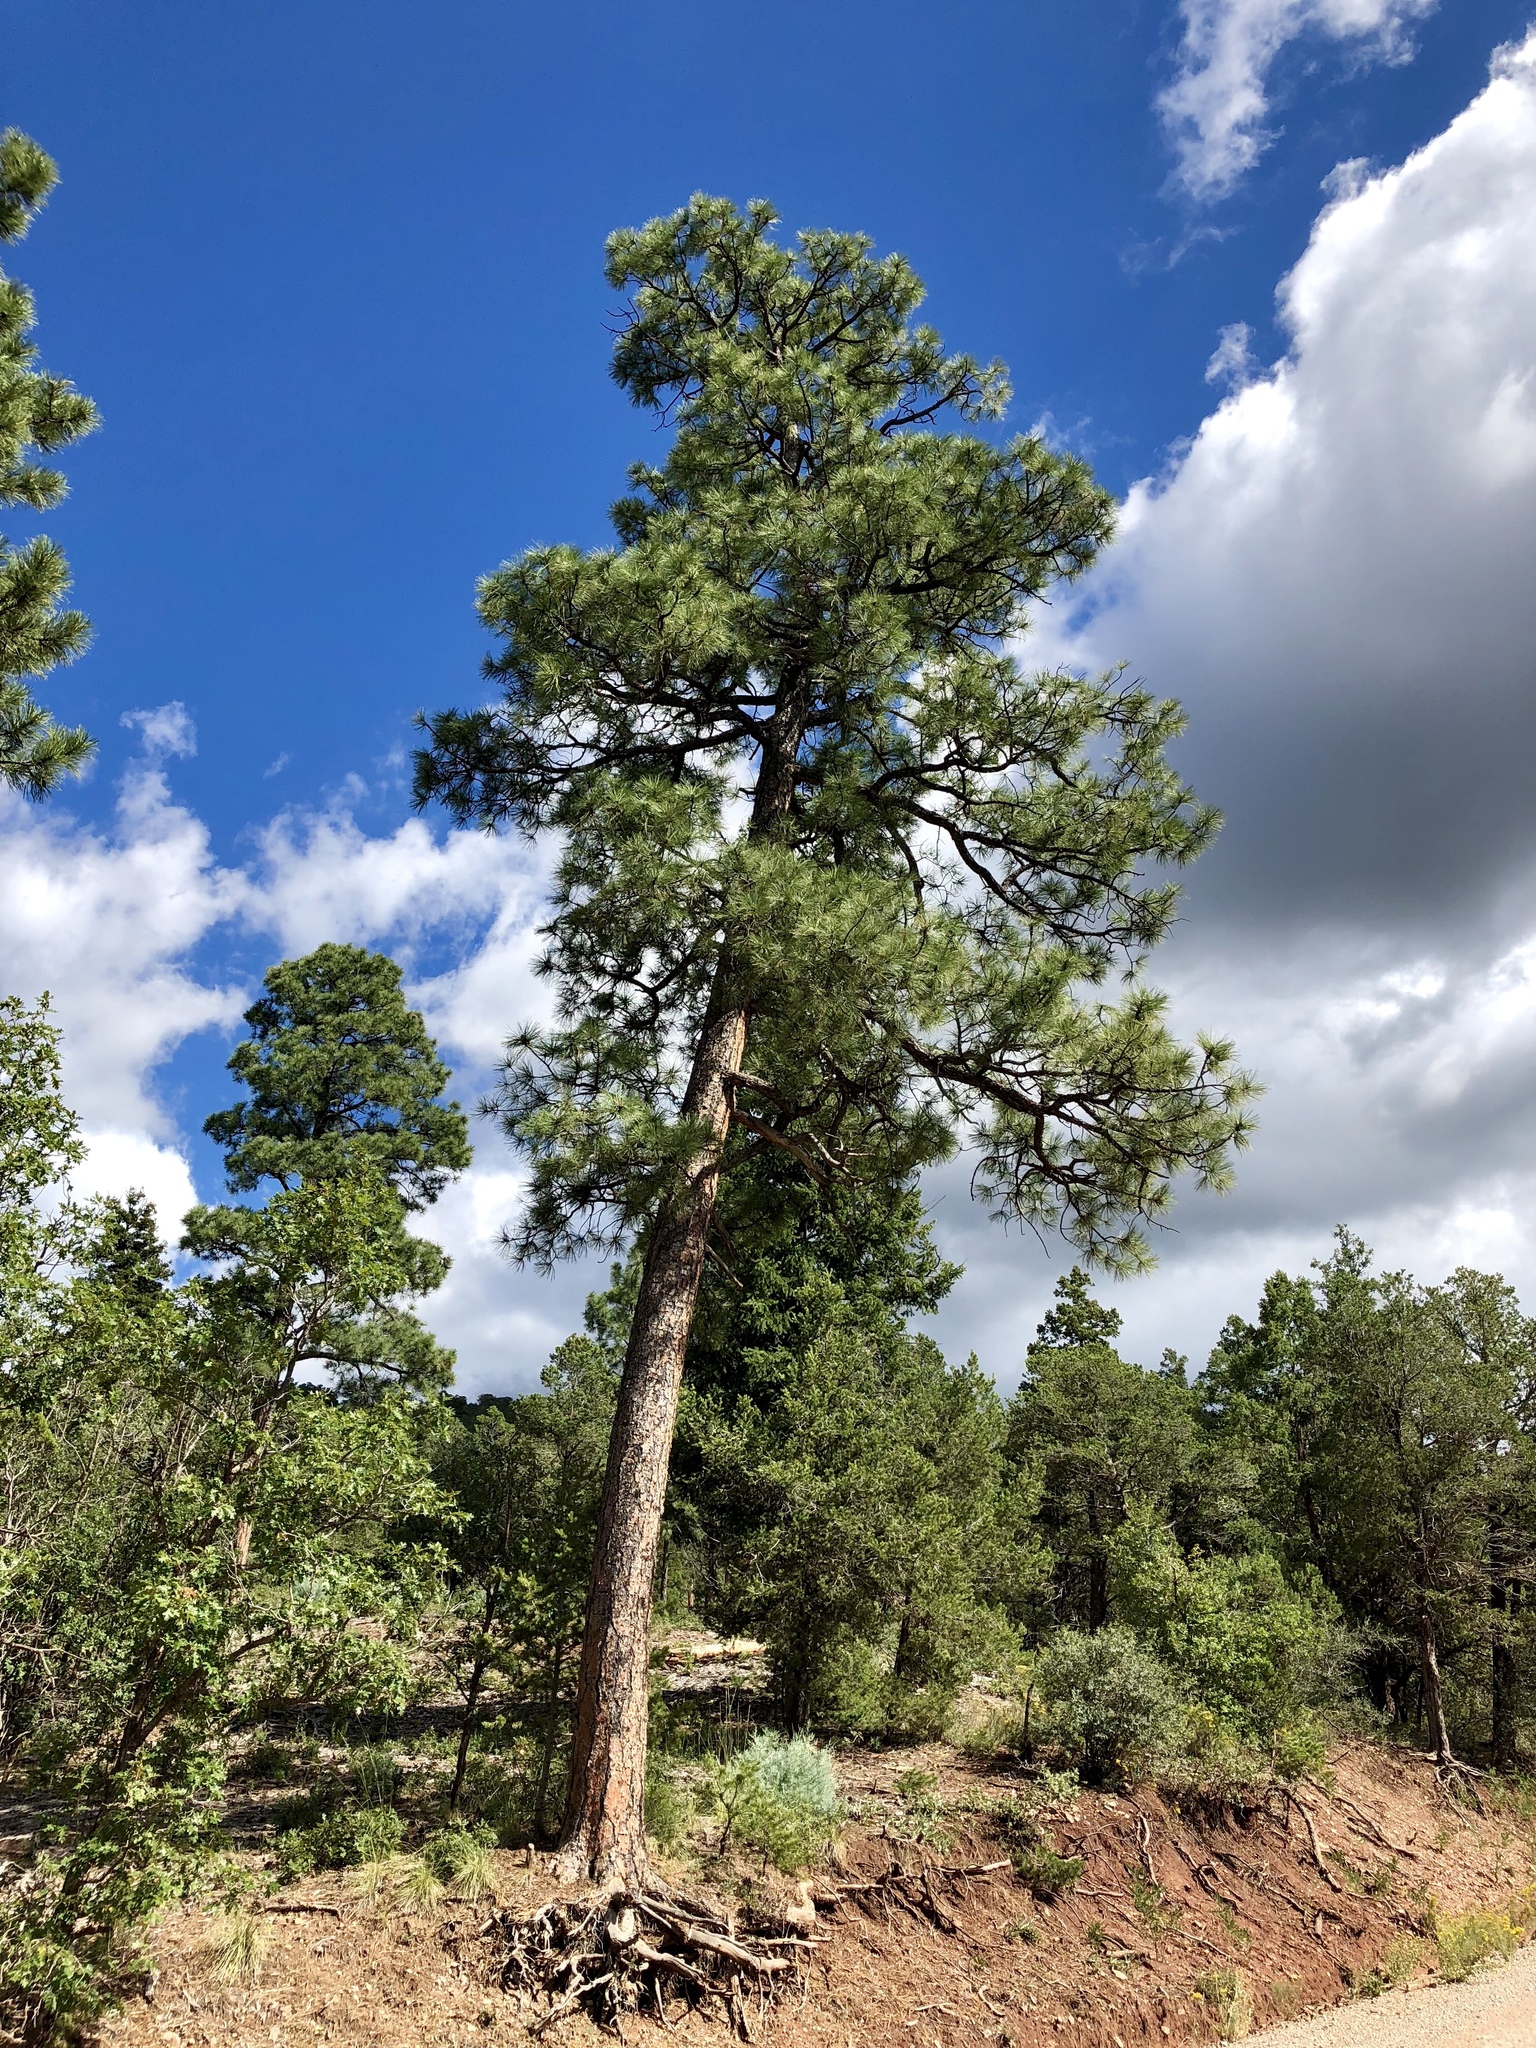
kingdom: Plantae
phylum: Tracheophyta
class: Pinopsida
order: Pinales
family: Pinaceae
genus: Pinus
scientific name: Pinus ponderosa
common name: Western yellow-pine
